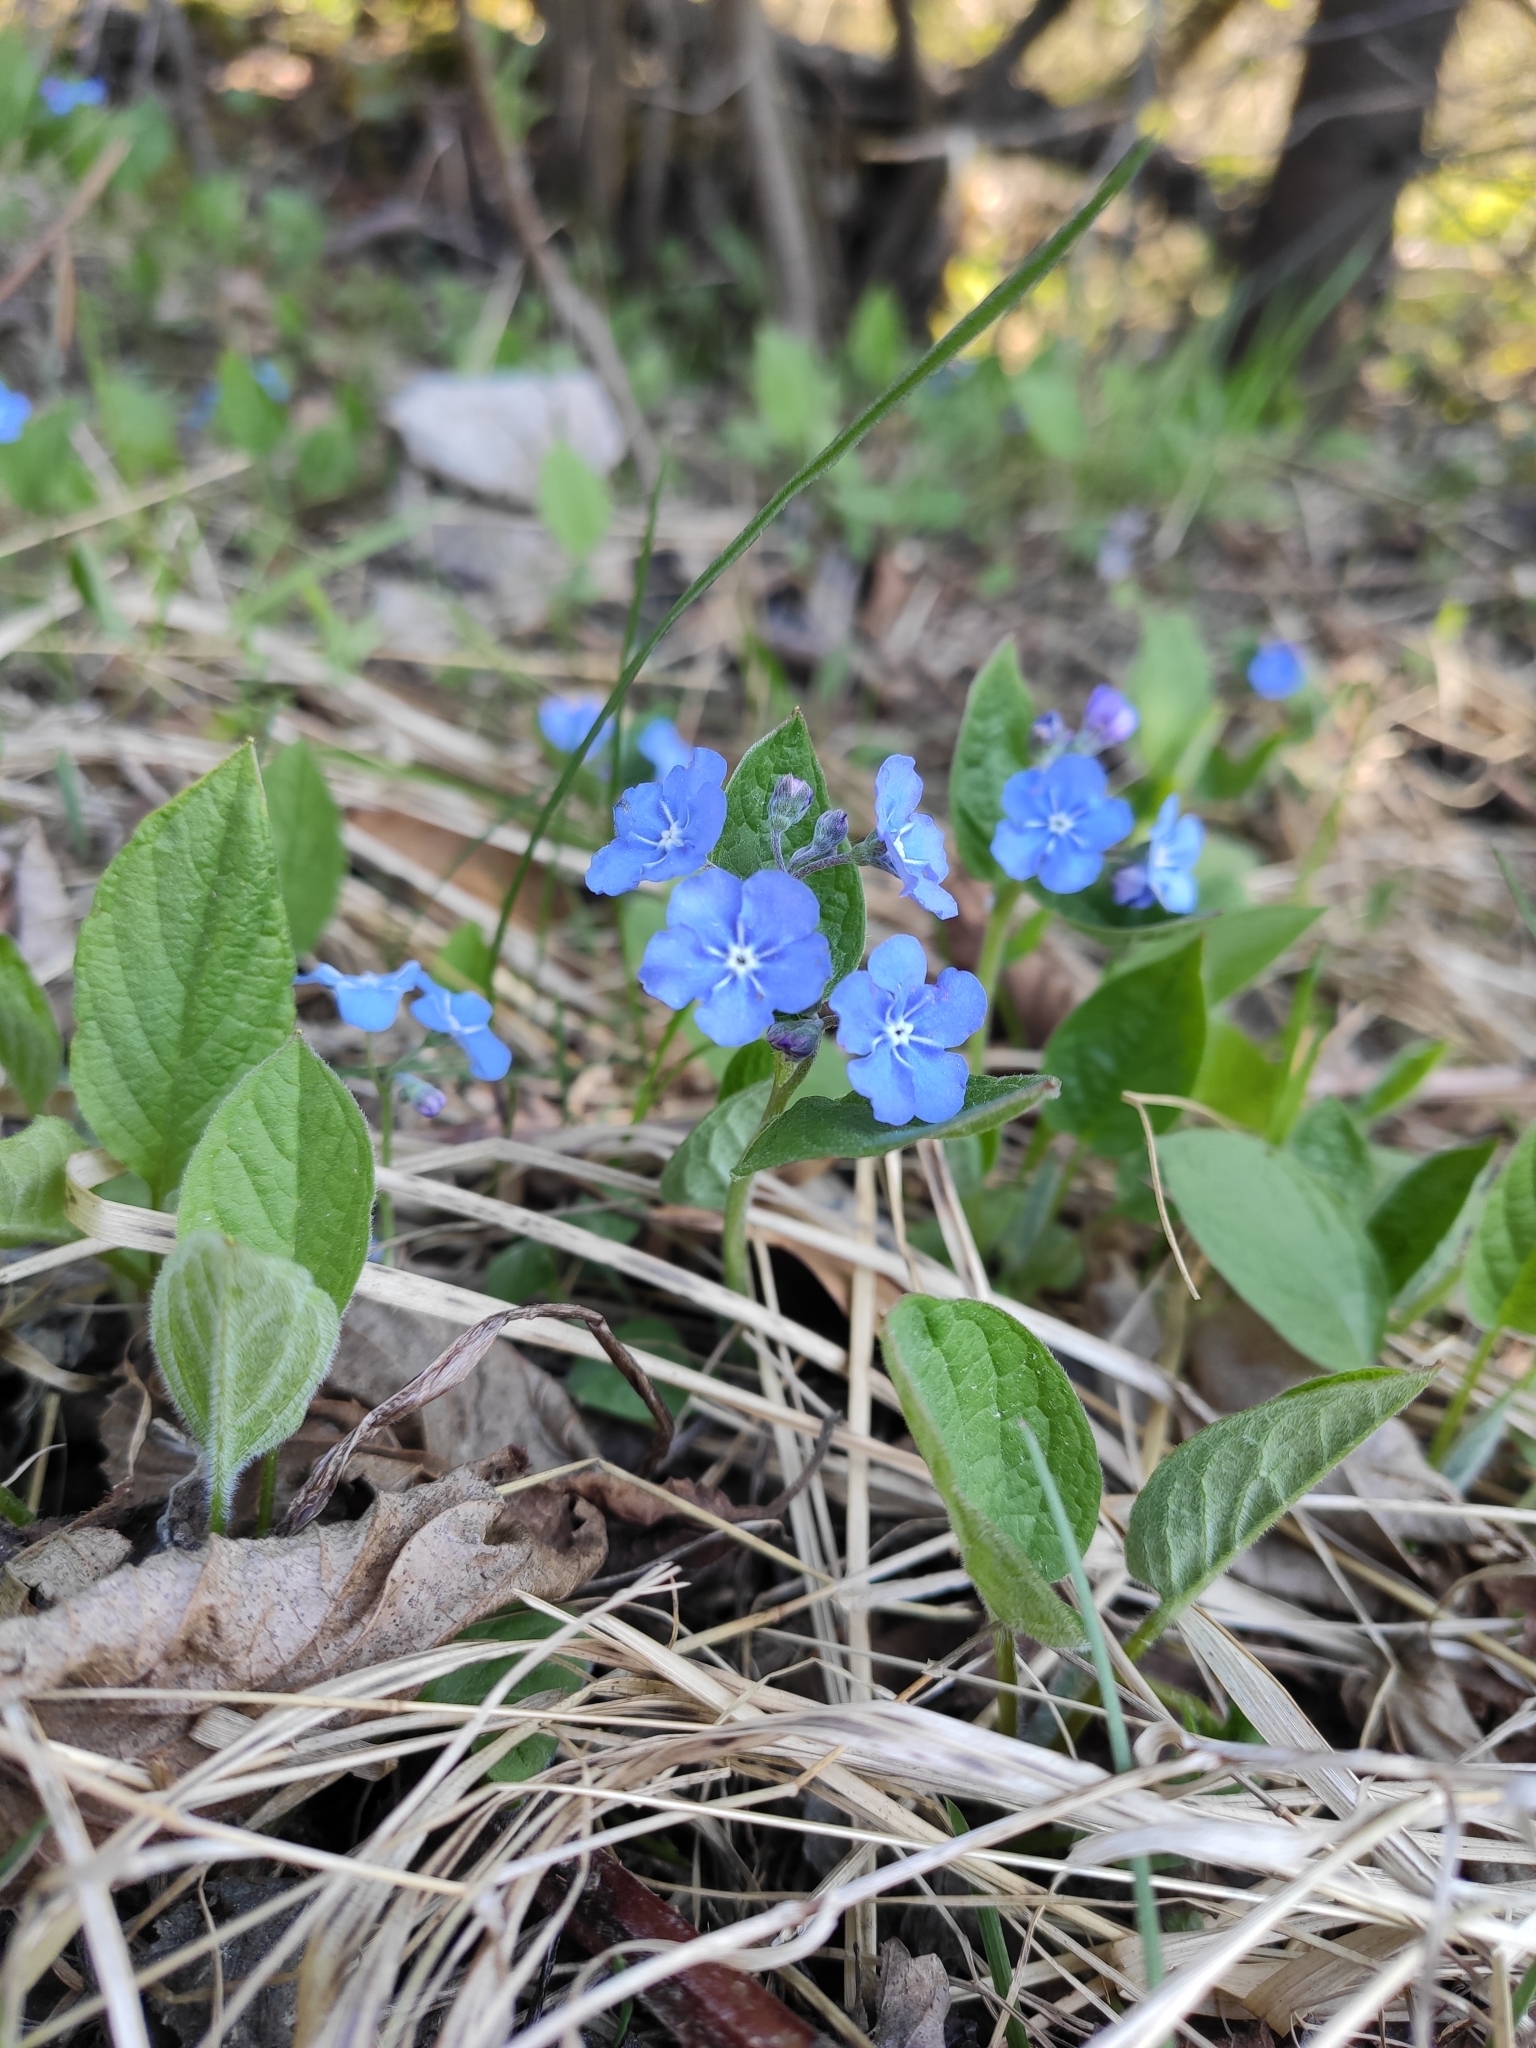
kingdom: Plantae
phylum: Tracheophyta
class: Magnoliopsida
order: Boraginales
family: Boraginaceae
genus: Omphalodes
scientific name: Omphalodes verna
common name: Blue-eyed-mary
